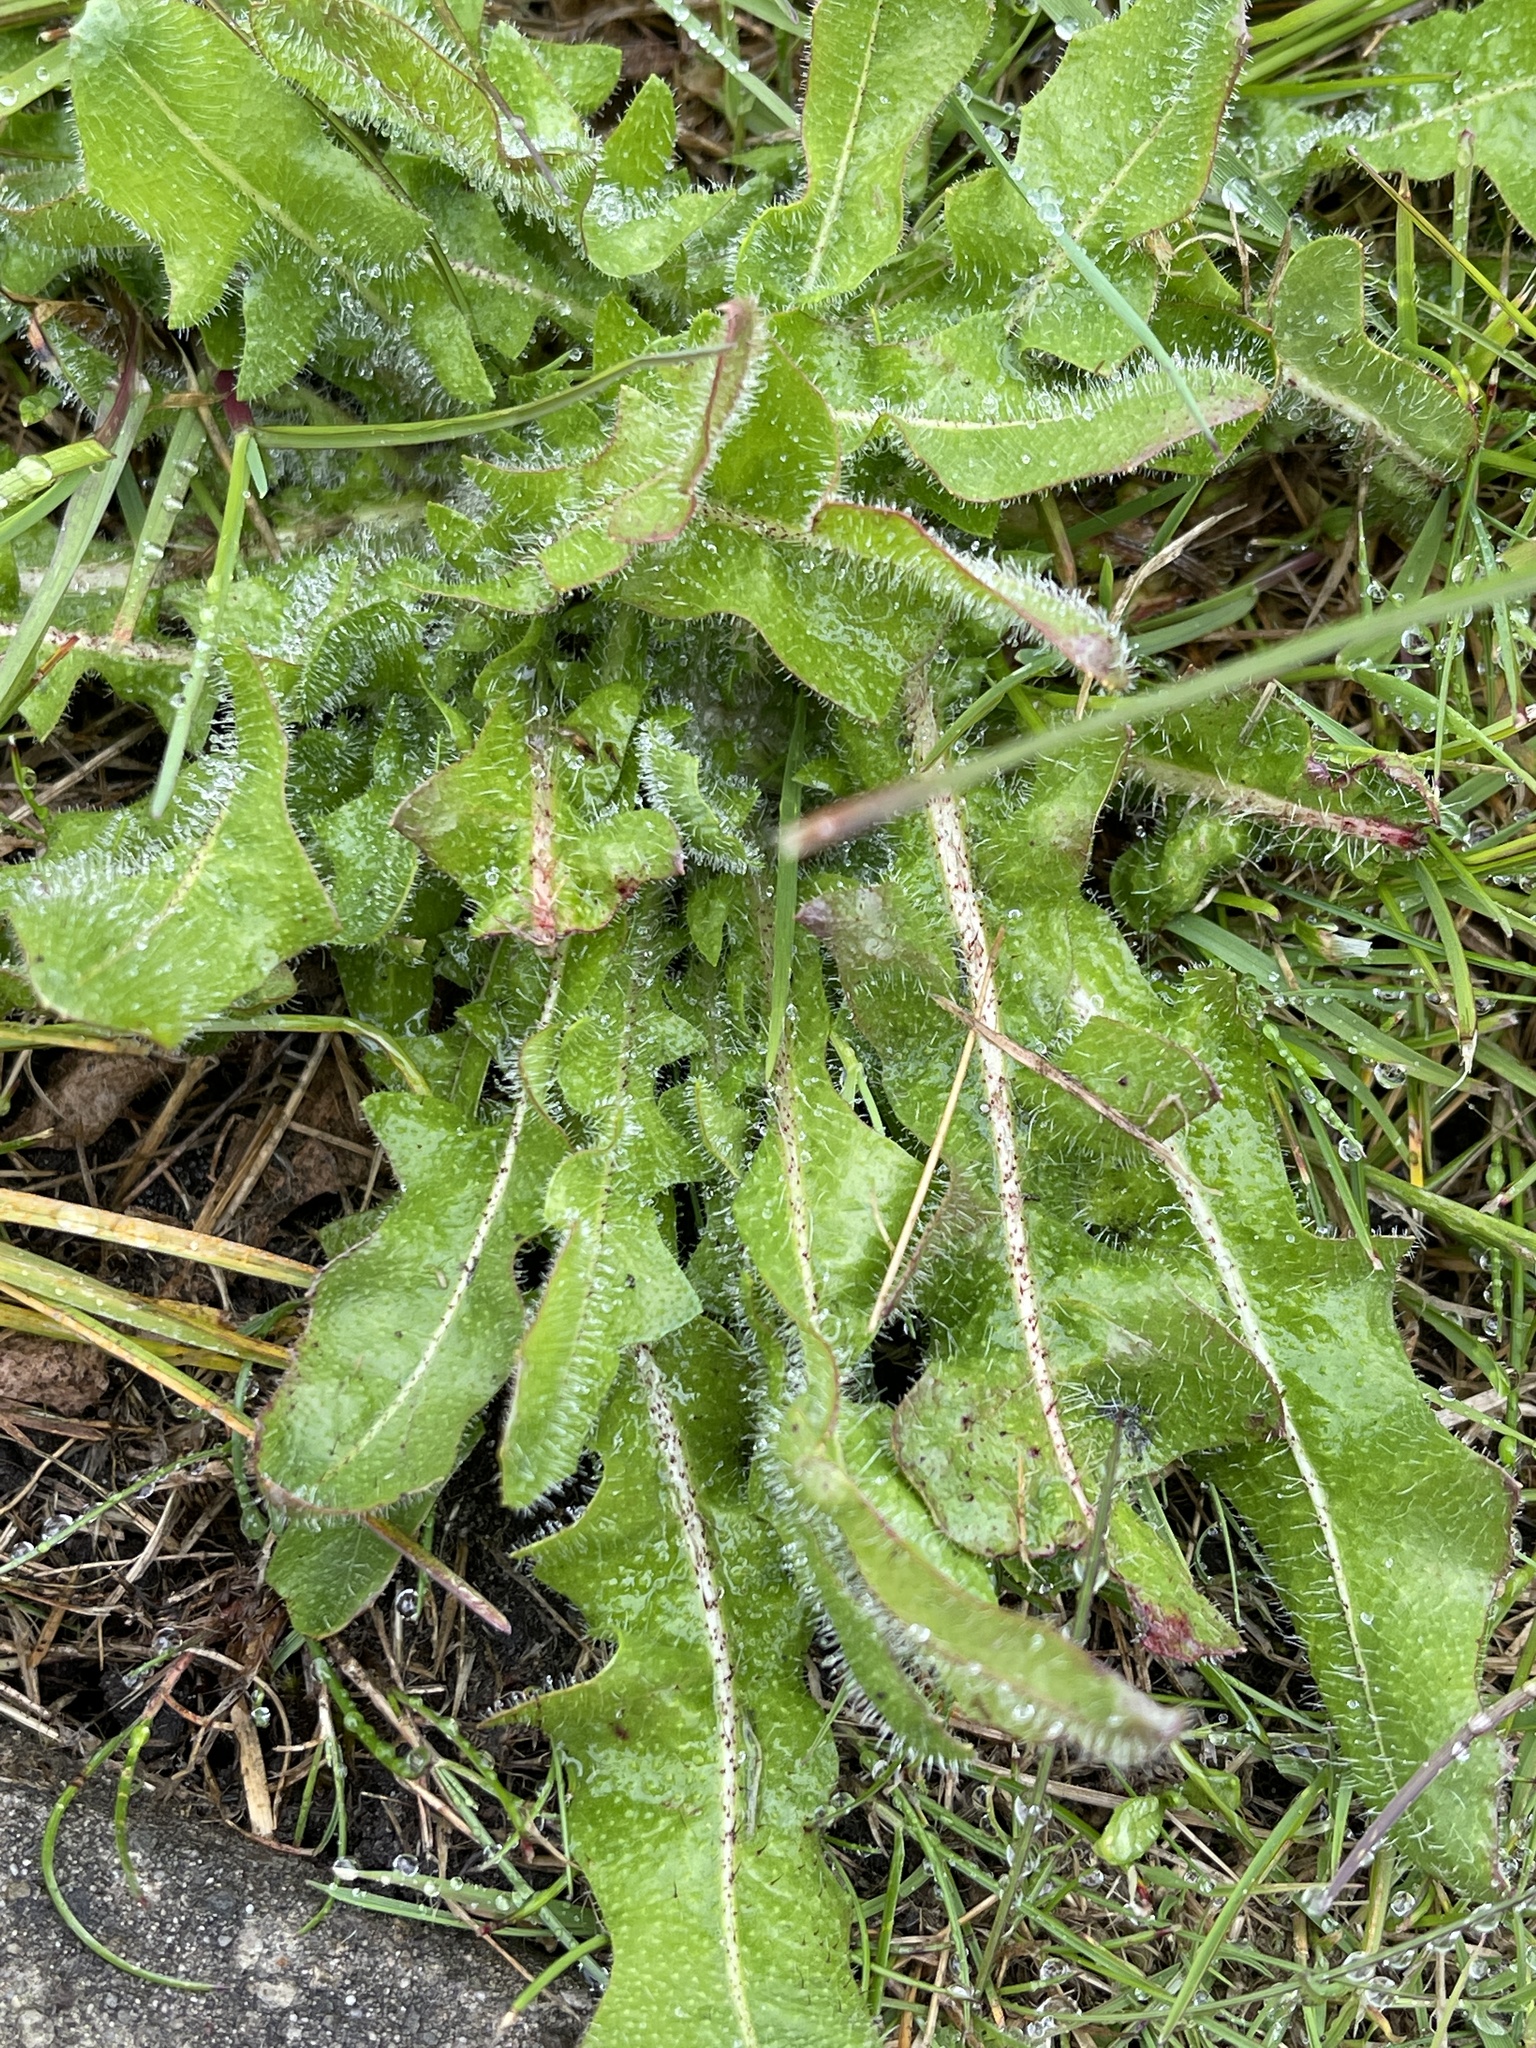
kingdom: Plantae
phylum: Tracheophyta
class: Magnoliopsida
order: Asterales
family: Asteraceae
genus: Hypochaeris
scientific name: Hypochaeris radicata
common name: Flatweed
